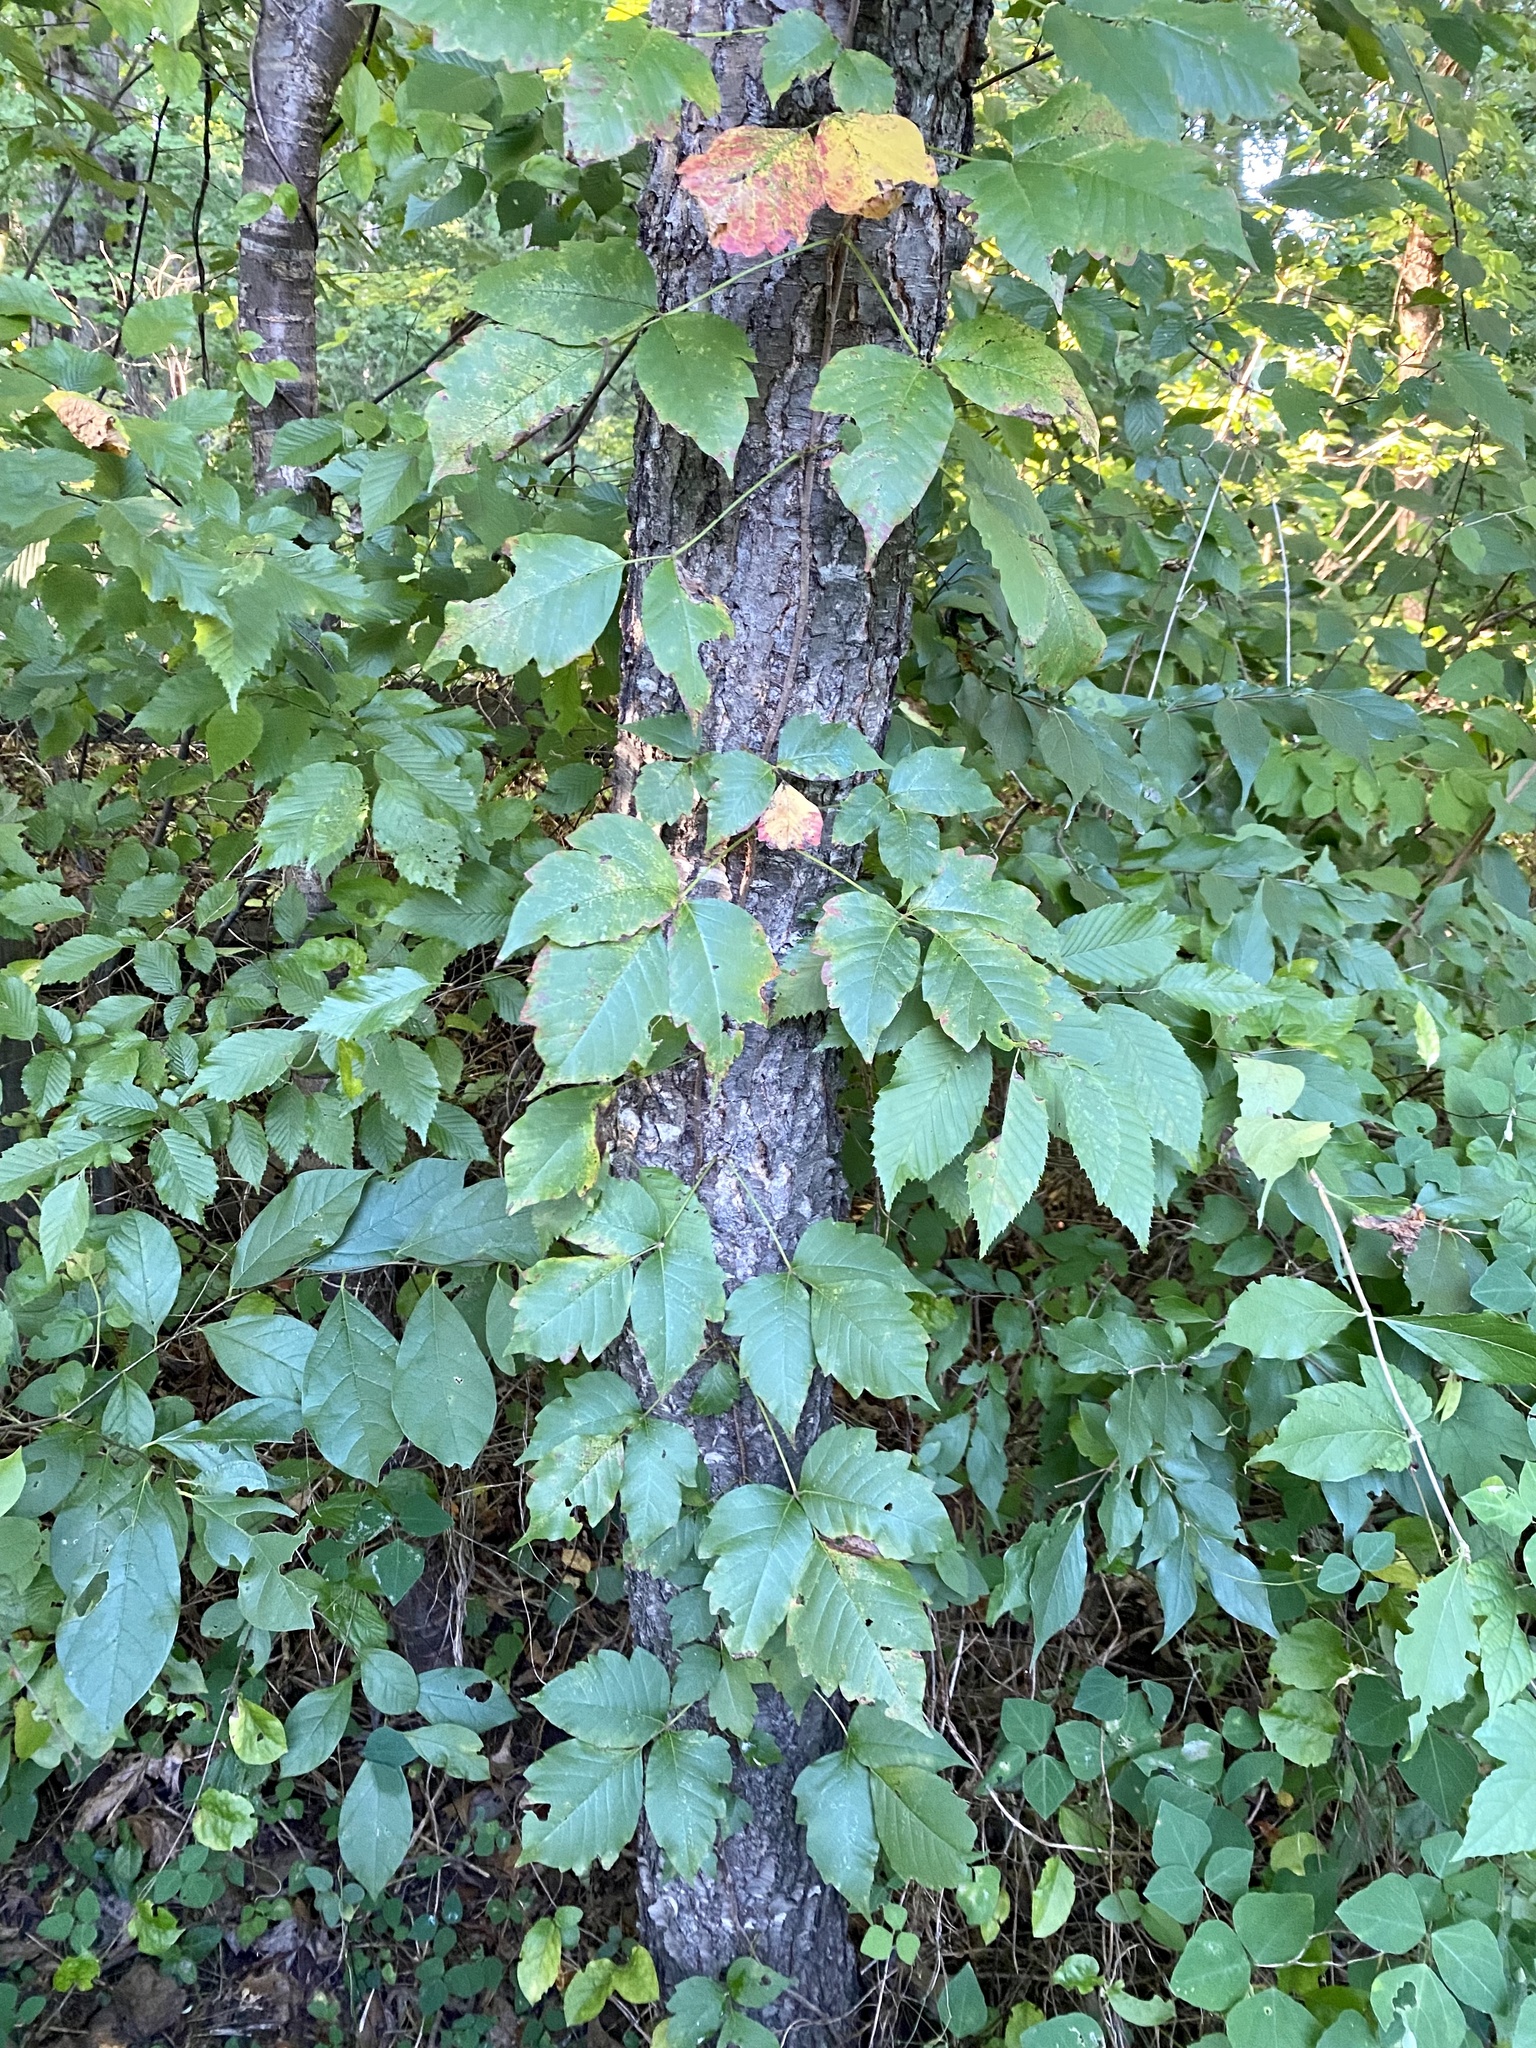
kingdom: Plantae
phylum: Tracheophyta
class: Magnoliopsida
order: Sapindales
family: Anacardiaceae
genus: Toxicodendron
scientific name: Toxicodendron radicans
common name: Poison ivy
